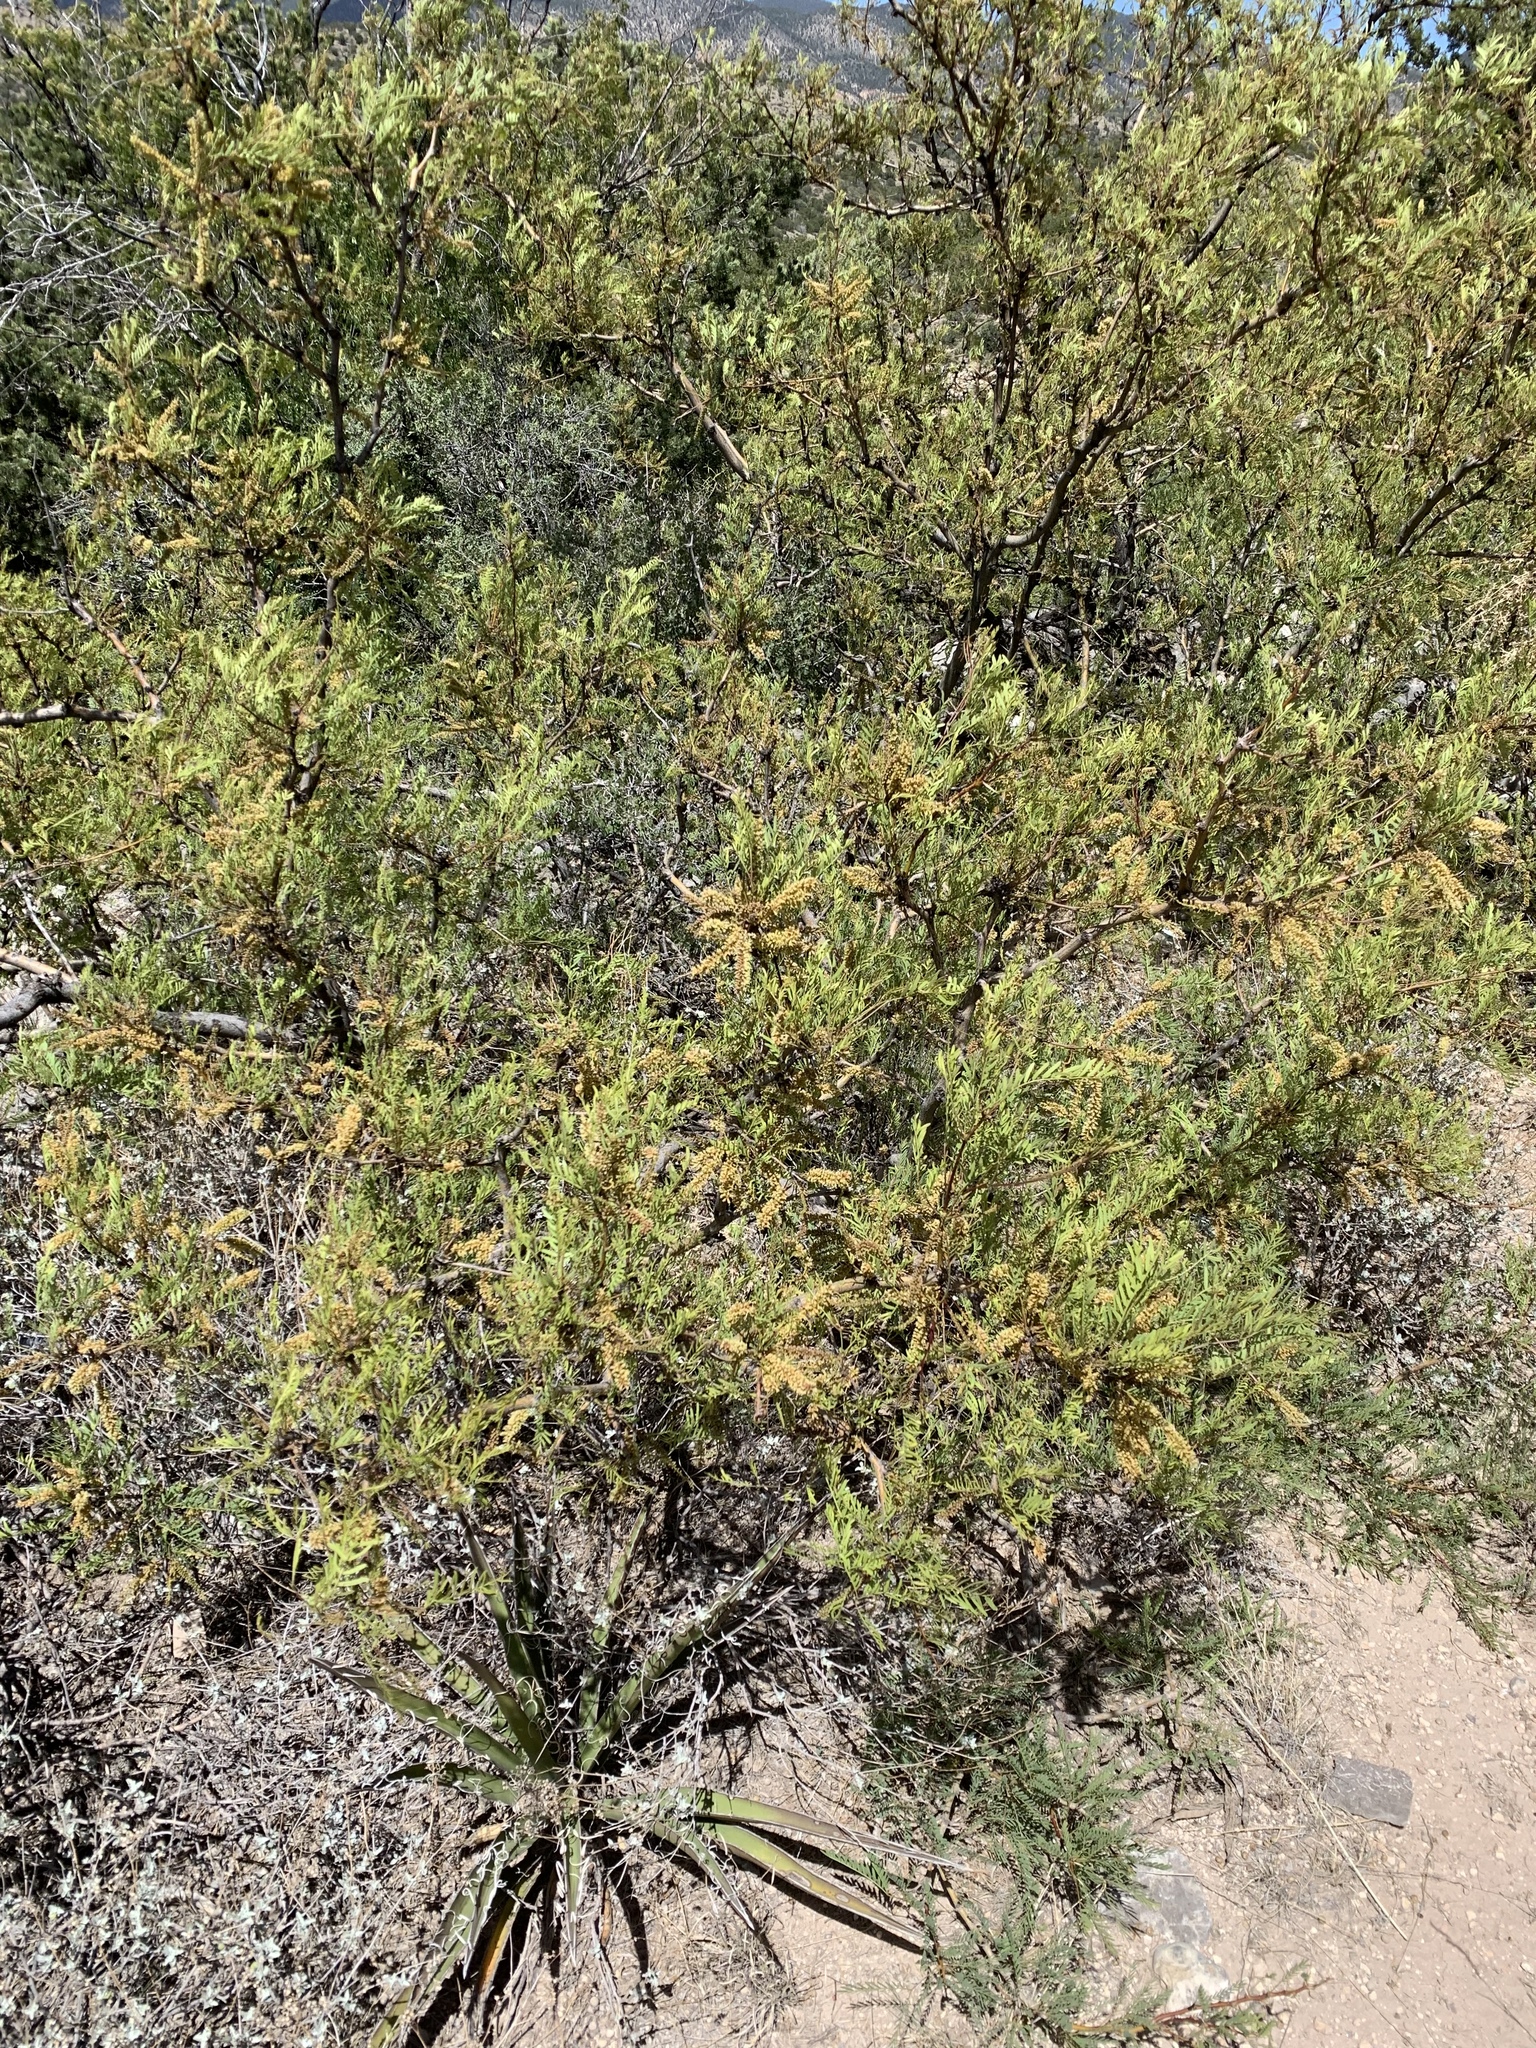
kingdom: Plantae
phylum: Tracheophyta
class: Magnoliopsida
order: Ranunculales
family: Berberidaceae
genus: Alloberberis
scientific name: Alloberberis haematocarpa
